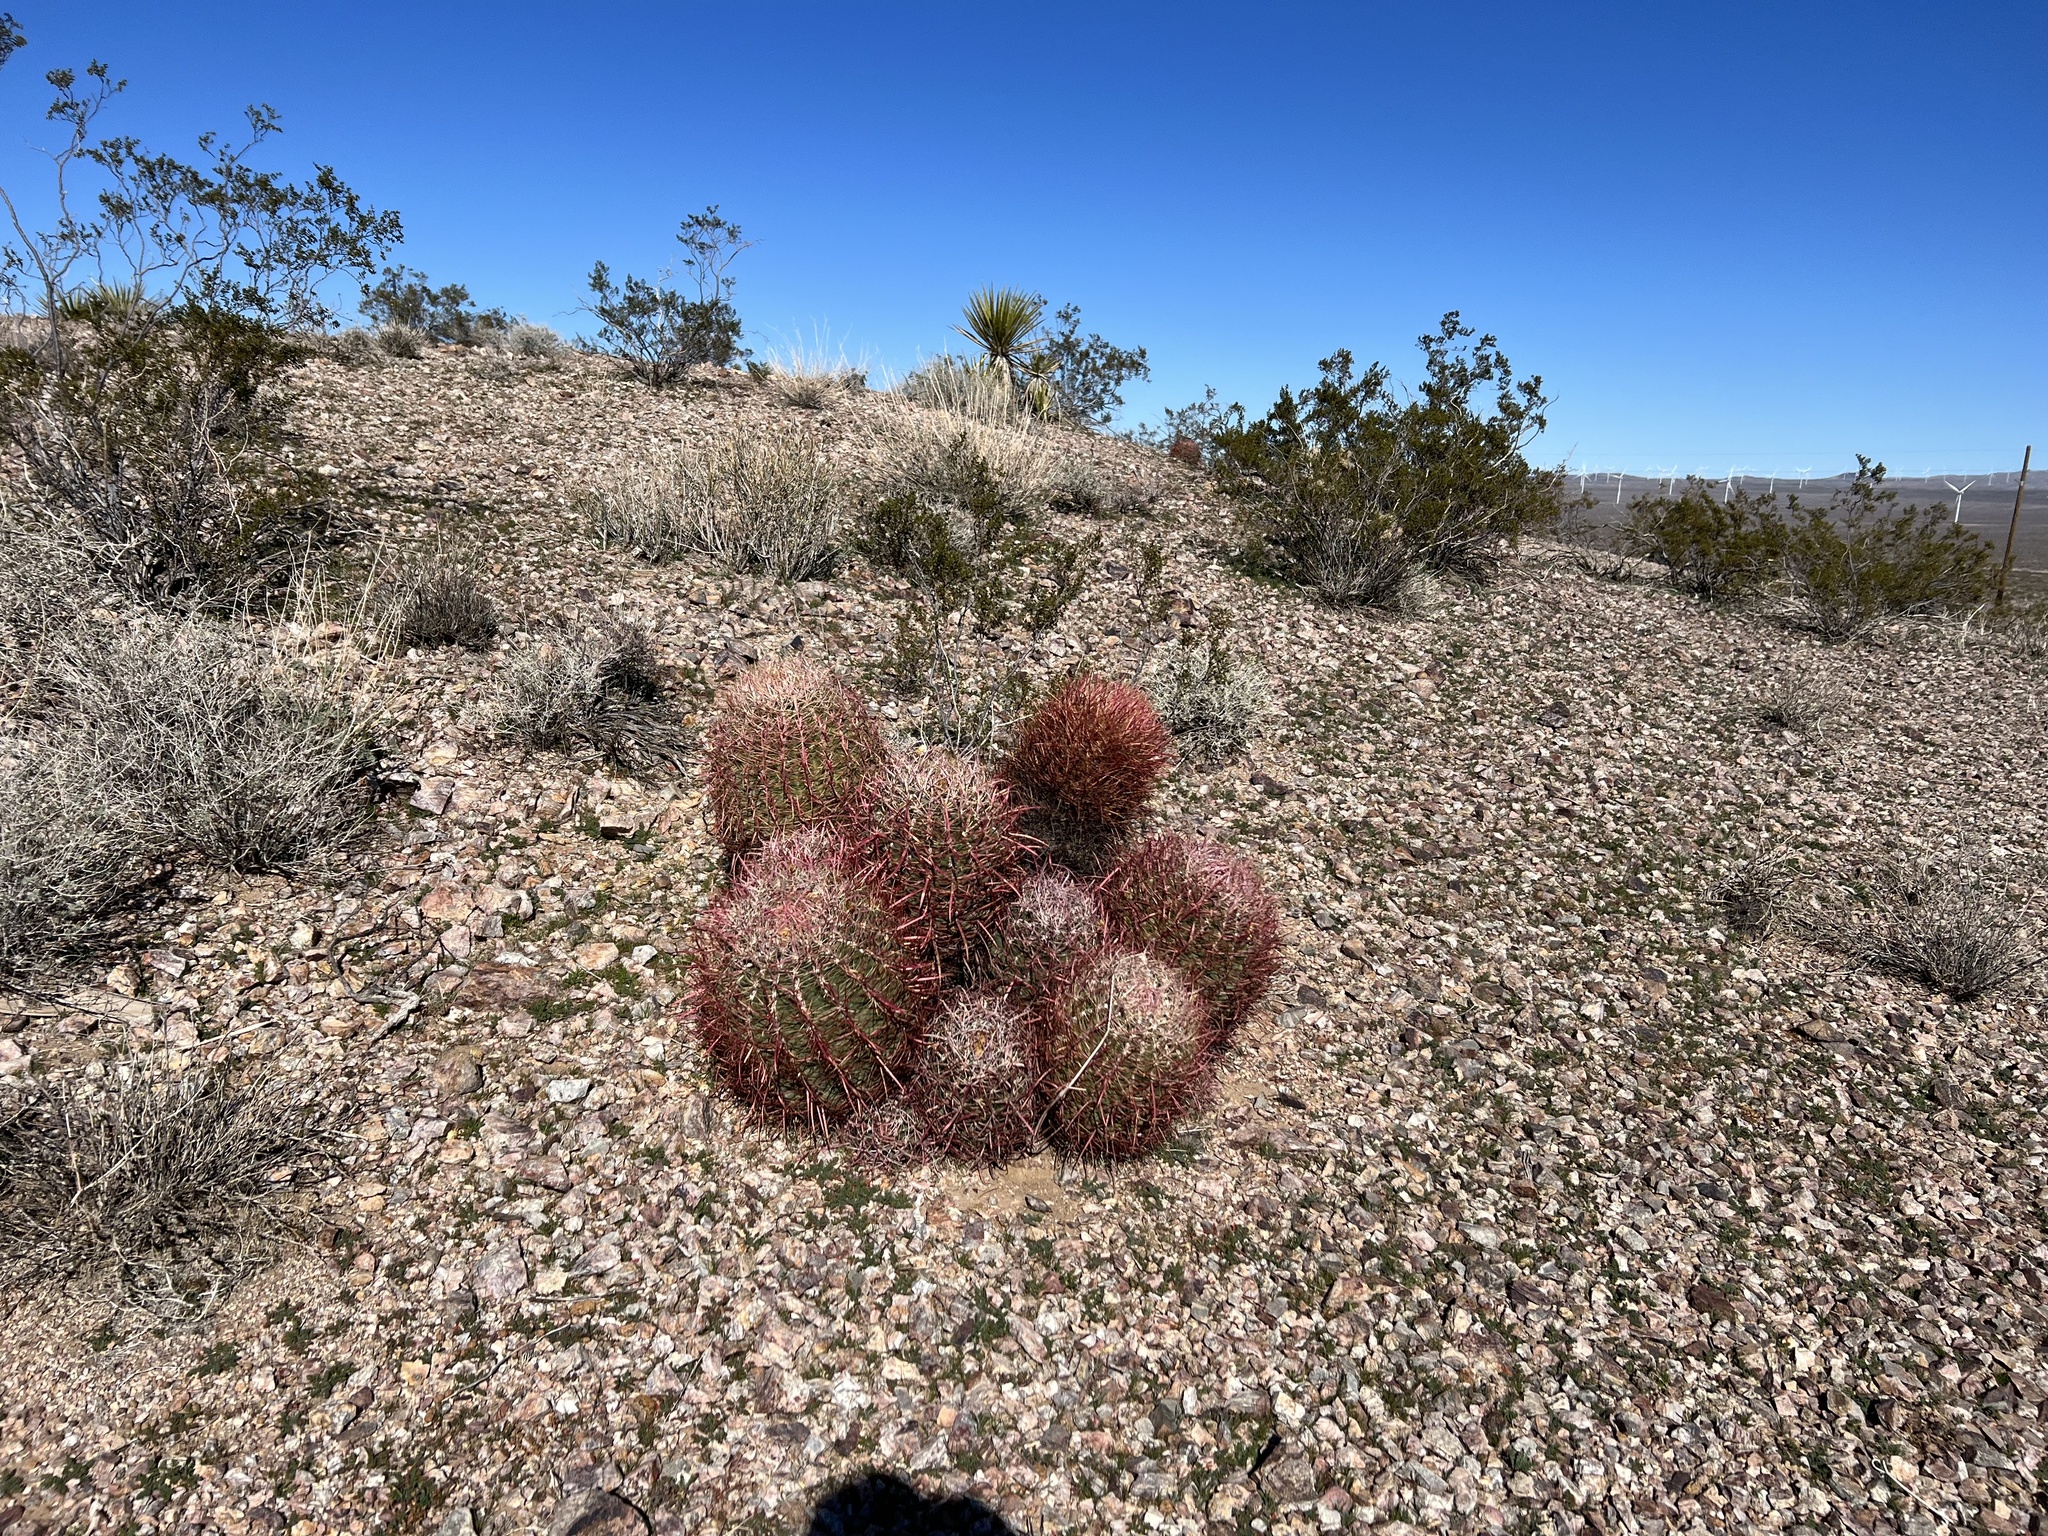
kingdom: Plantae
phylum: Tracheophyta
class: Magnoliopsida
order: Caryophyllales
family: Cactaceae
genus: Ferocactus
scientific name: Ferocactus cylindraceus
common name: California barrel cactus
